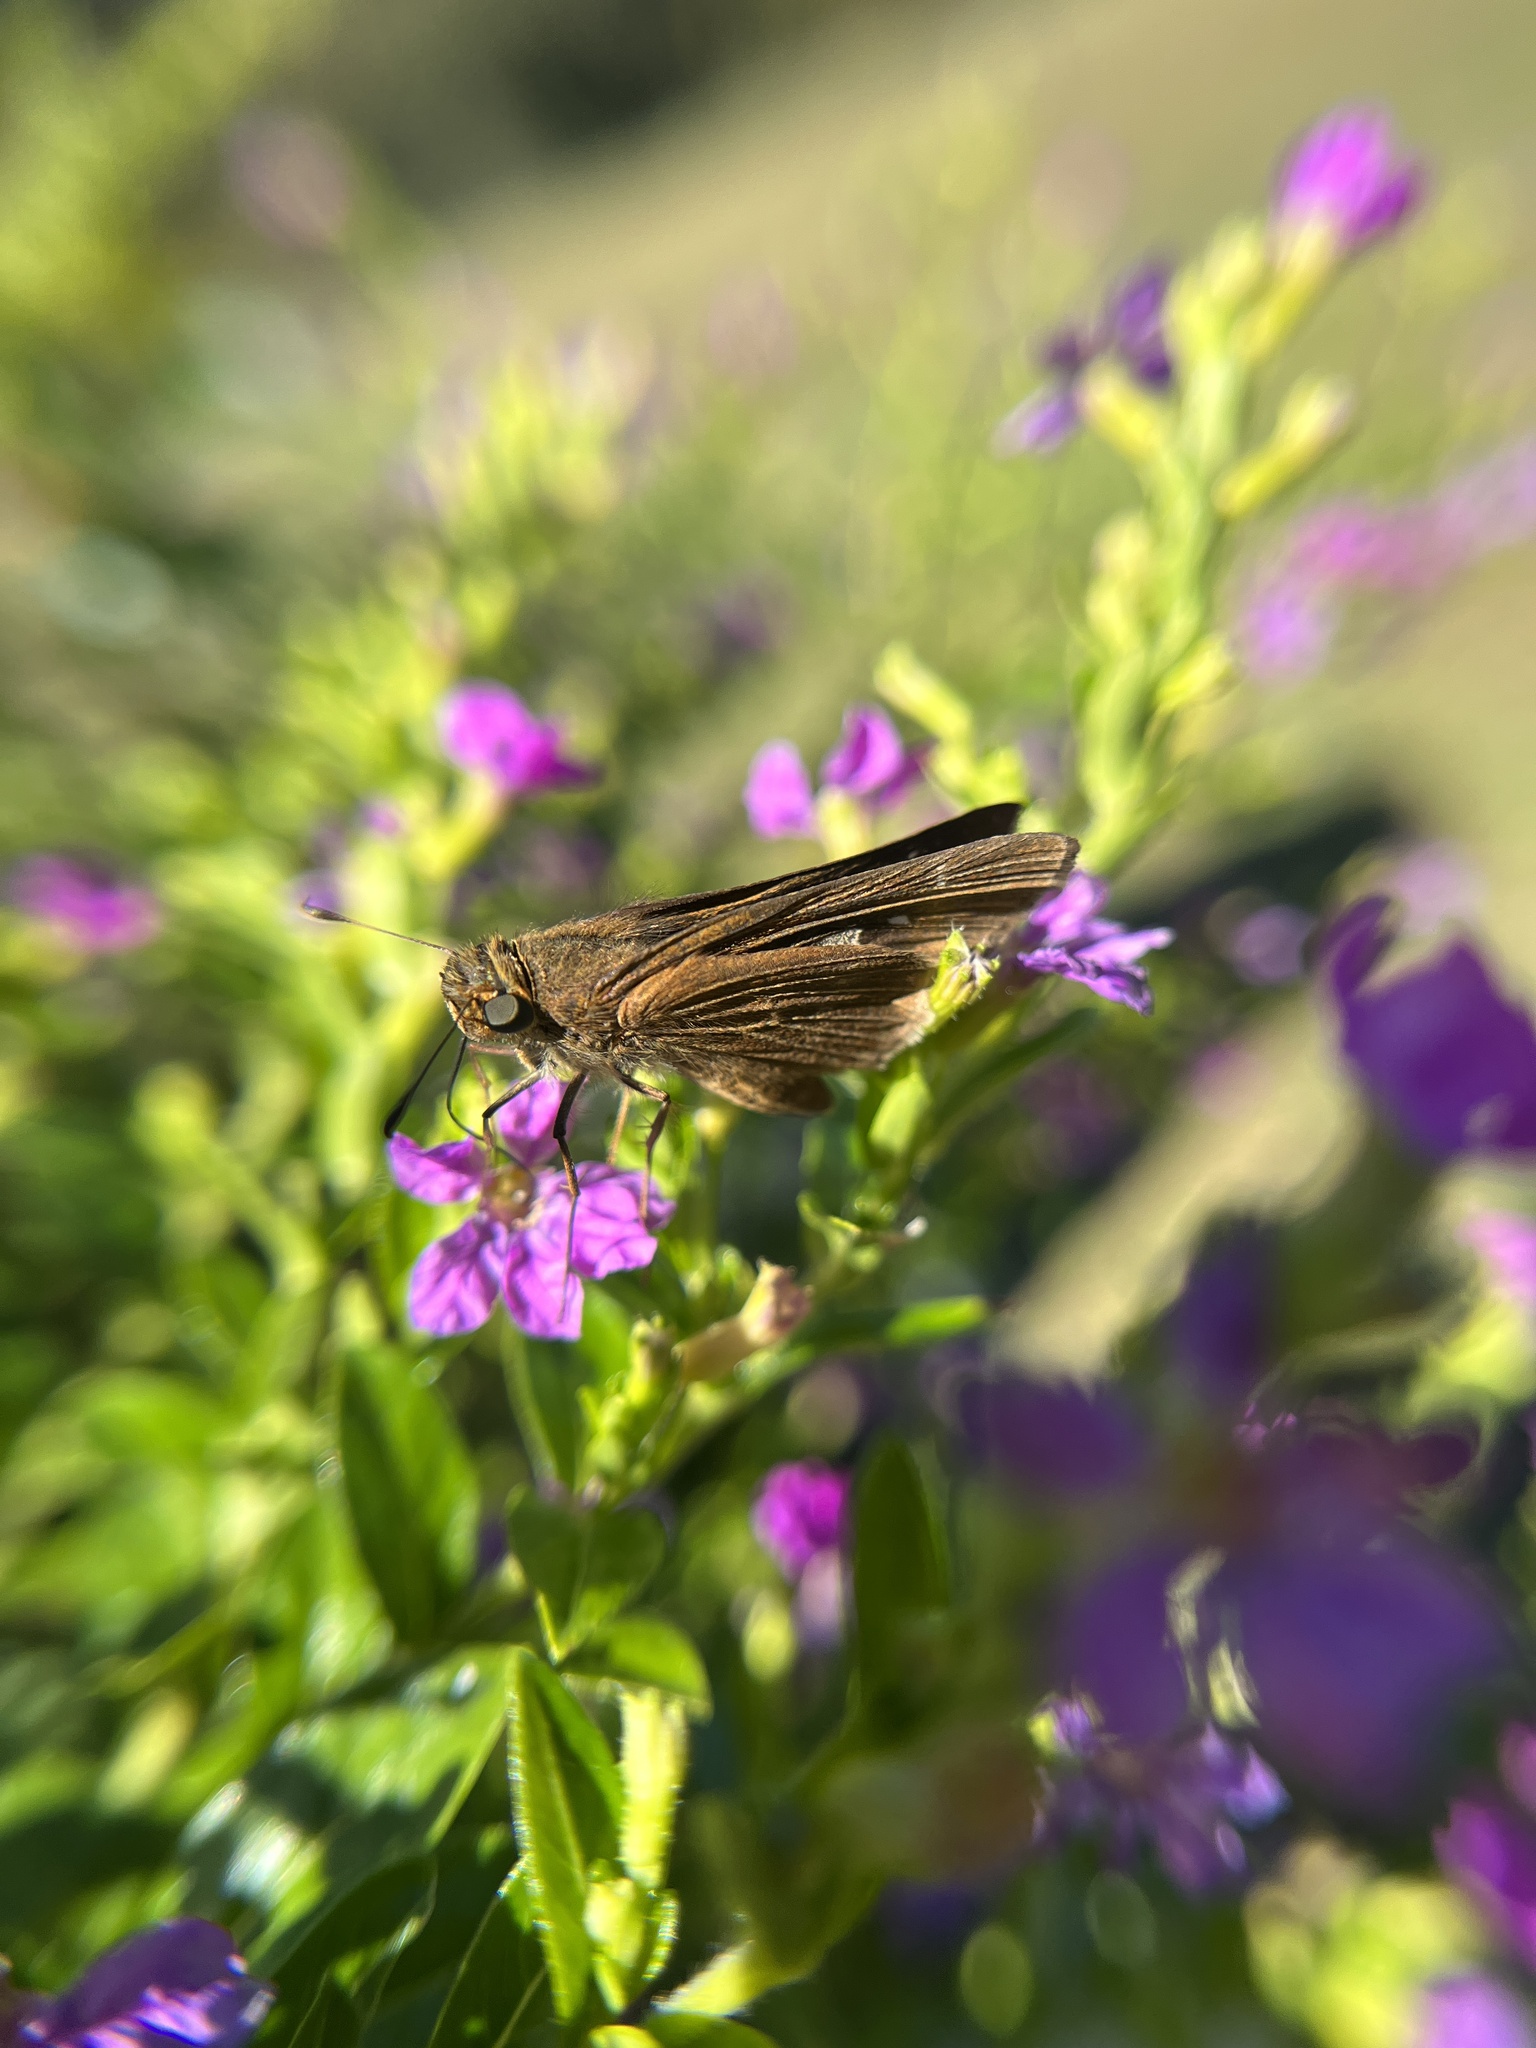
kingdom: Animalia
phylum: Arthropoda
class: Insecta
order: Lepidoptera
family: Hesperiidae
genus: Panoquina
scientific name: Panoquina ocola
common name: Ocola skipper
